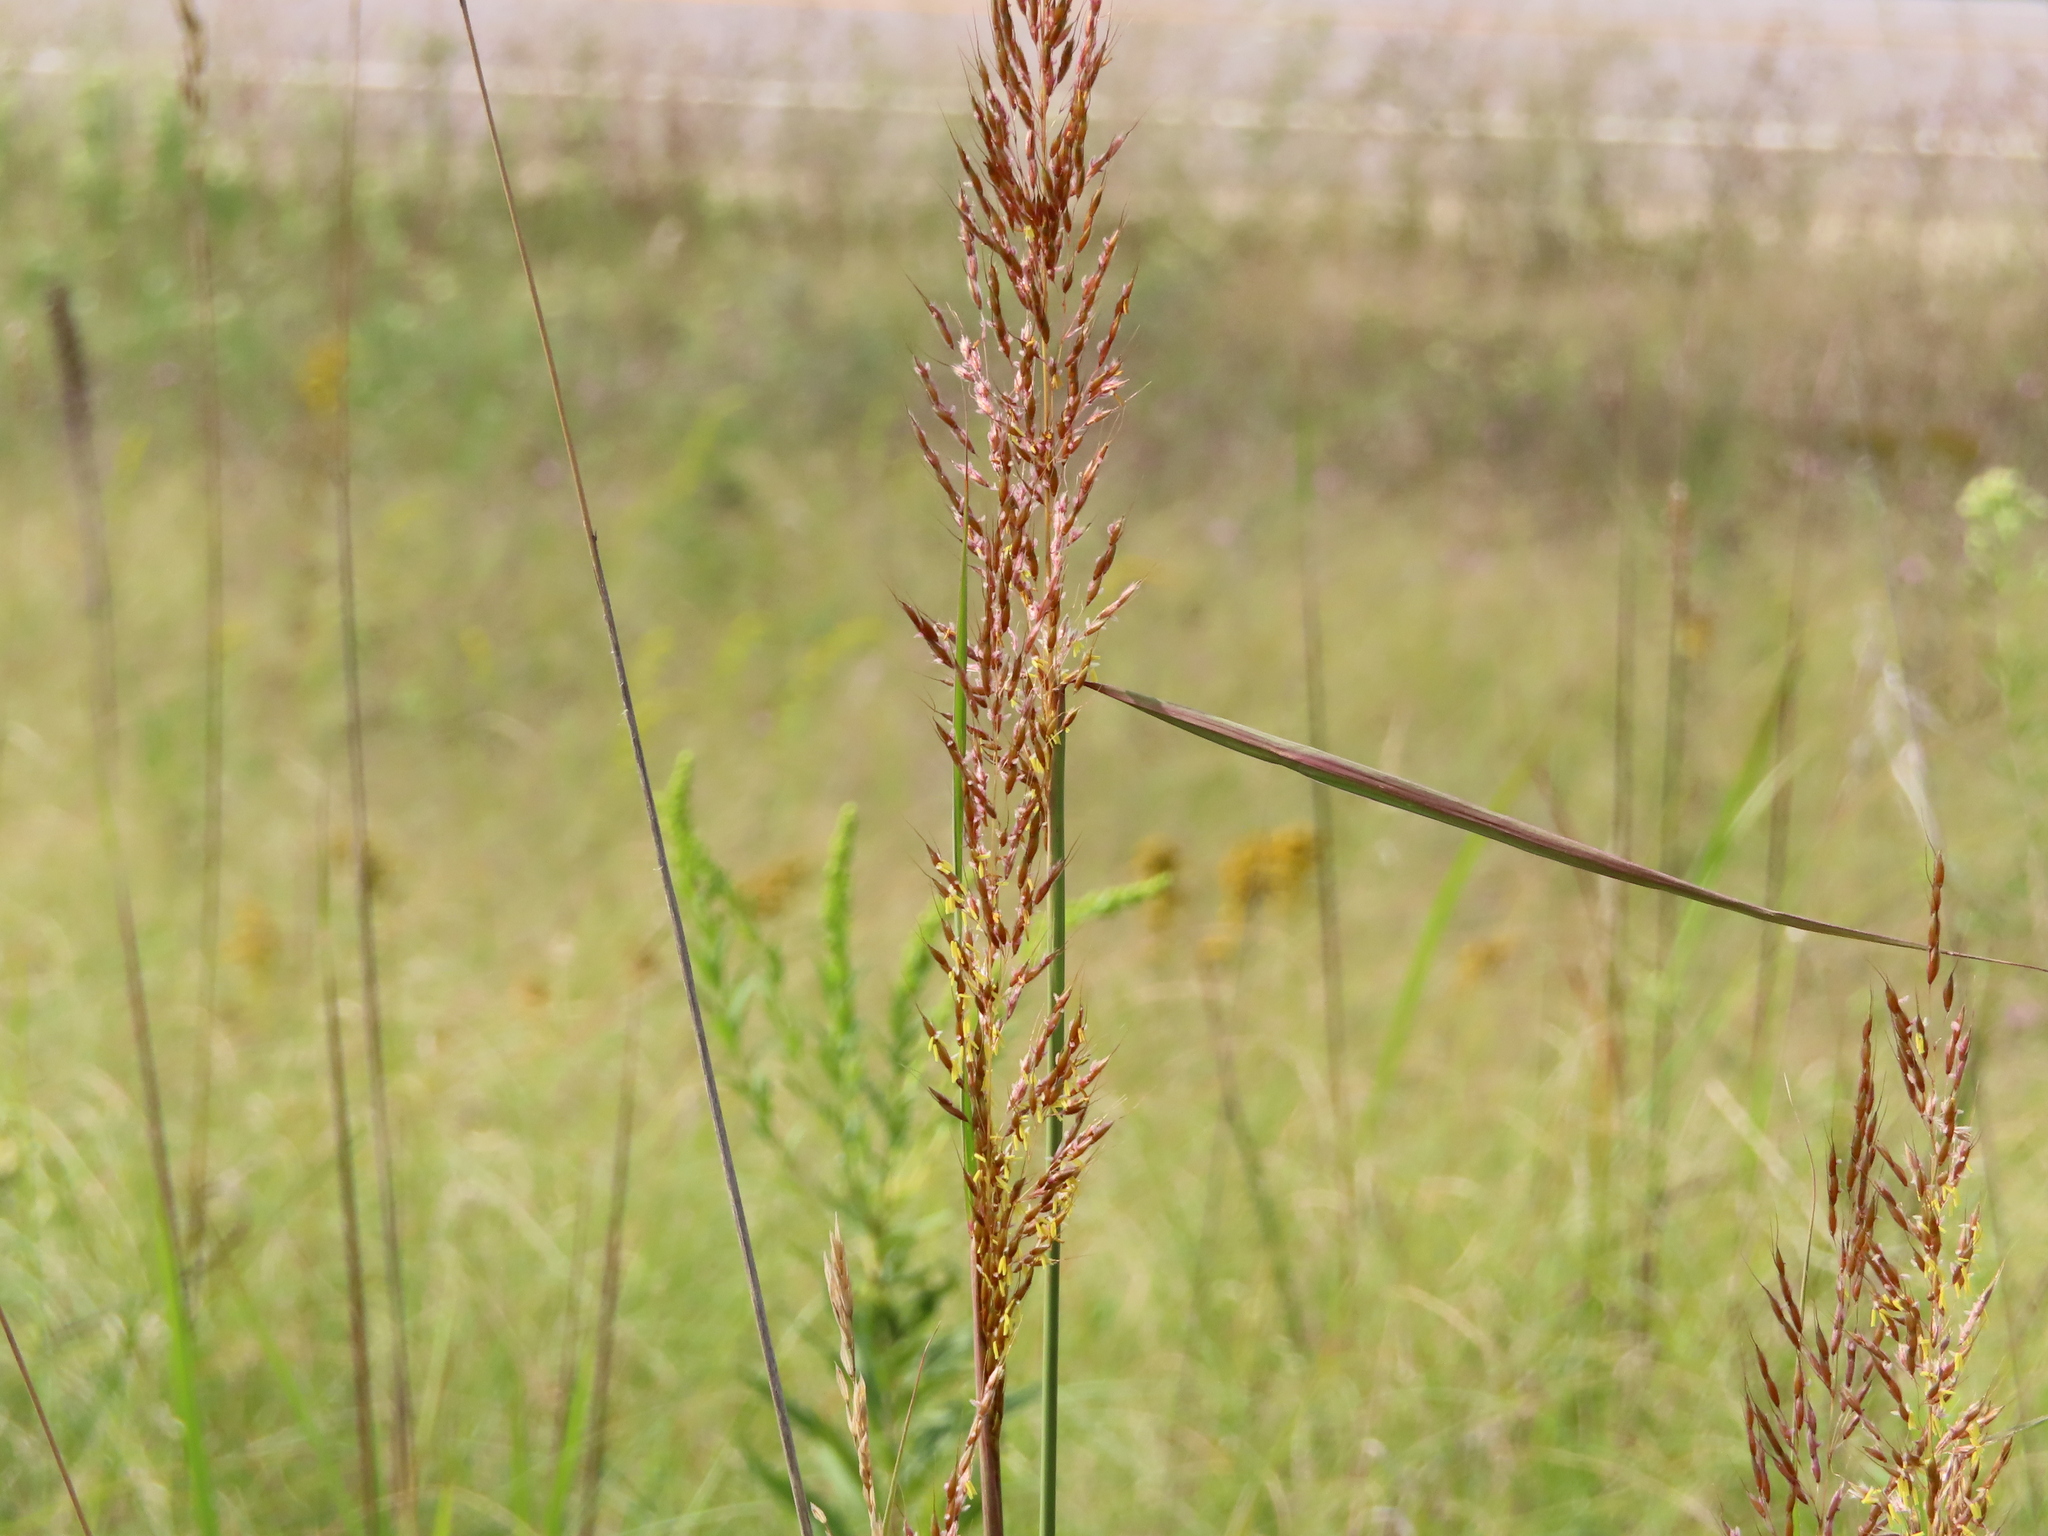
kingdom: Plantae
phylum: Tracheophyta
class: Liliopsida
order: Poales
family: Poaceae
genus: Sorghastrum
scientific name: Sorghastrum nutans
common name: Indian grass
